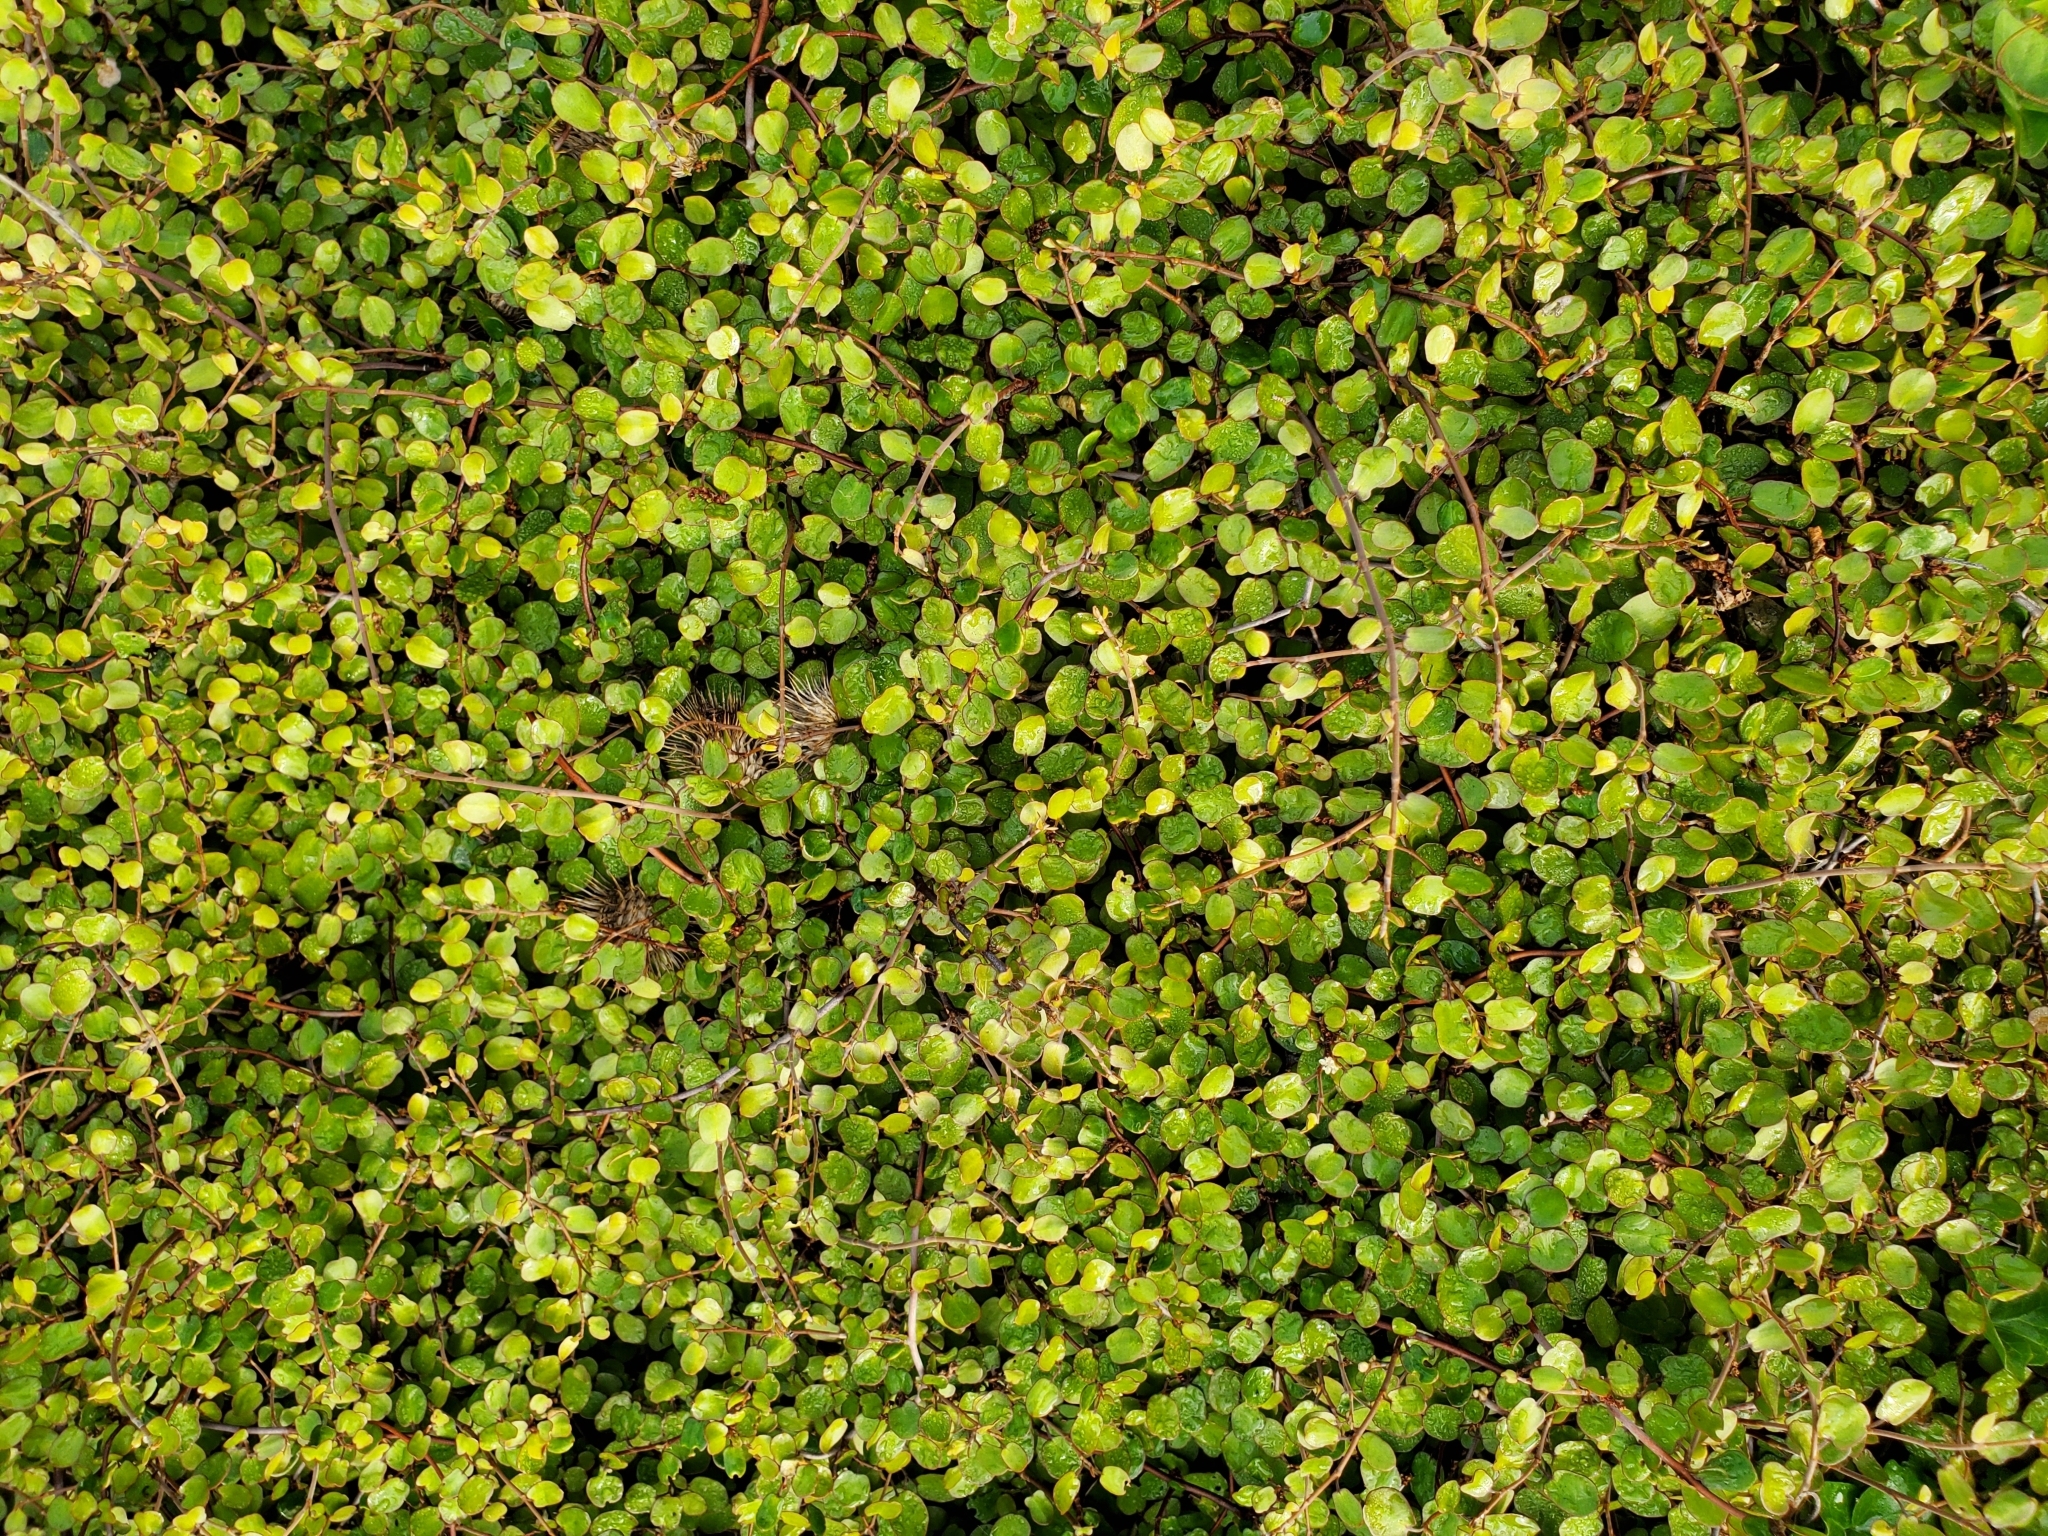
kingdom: Plantae
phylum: Tracheophyta
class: Magnoliopsida
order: Caryophyllales
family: Polygonaceae
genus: Muehlenbeckia
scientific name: Muehlenbeckia complexa
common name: Wireplant
